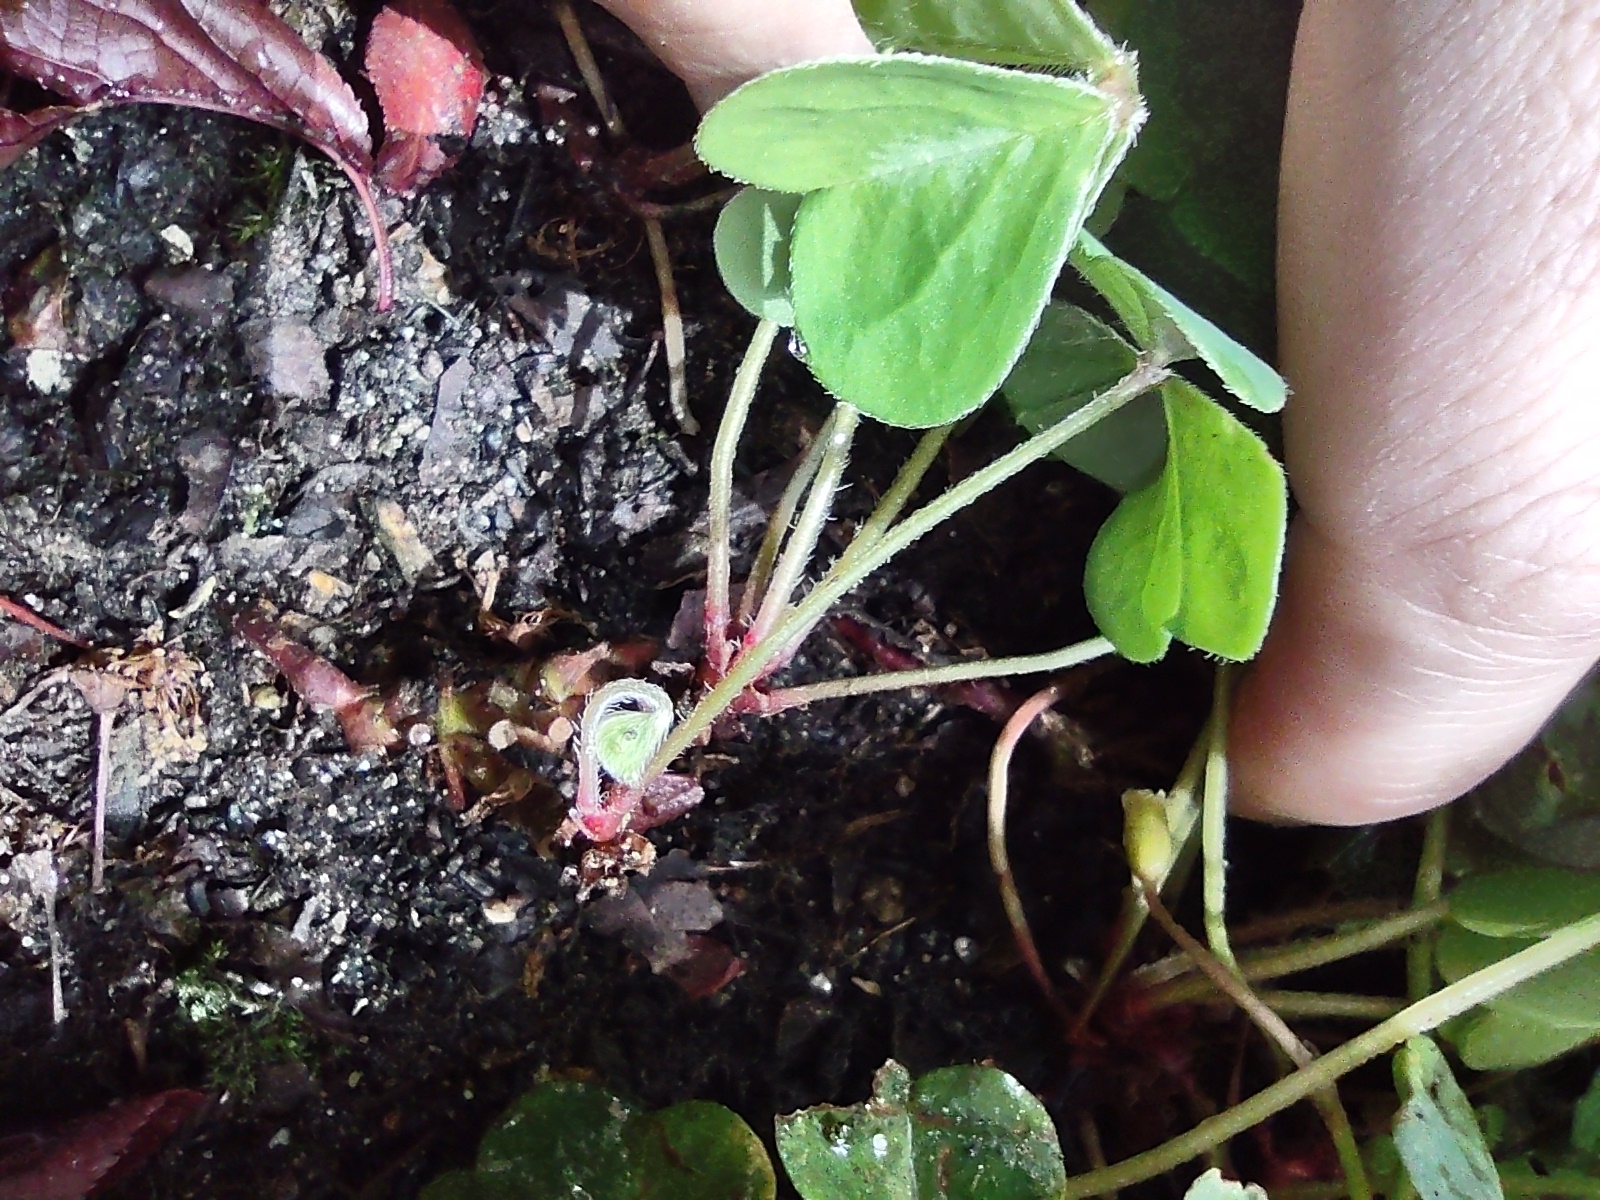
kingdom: Plantae
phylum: Tracheophyta
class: Magnoliopsida
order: Oxalidales
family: Oxalidaceae
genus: Oxalis
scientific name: Oxalis oregana
